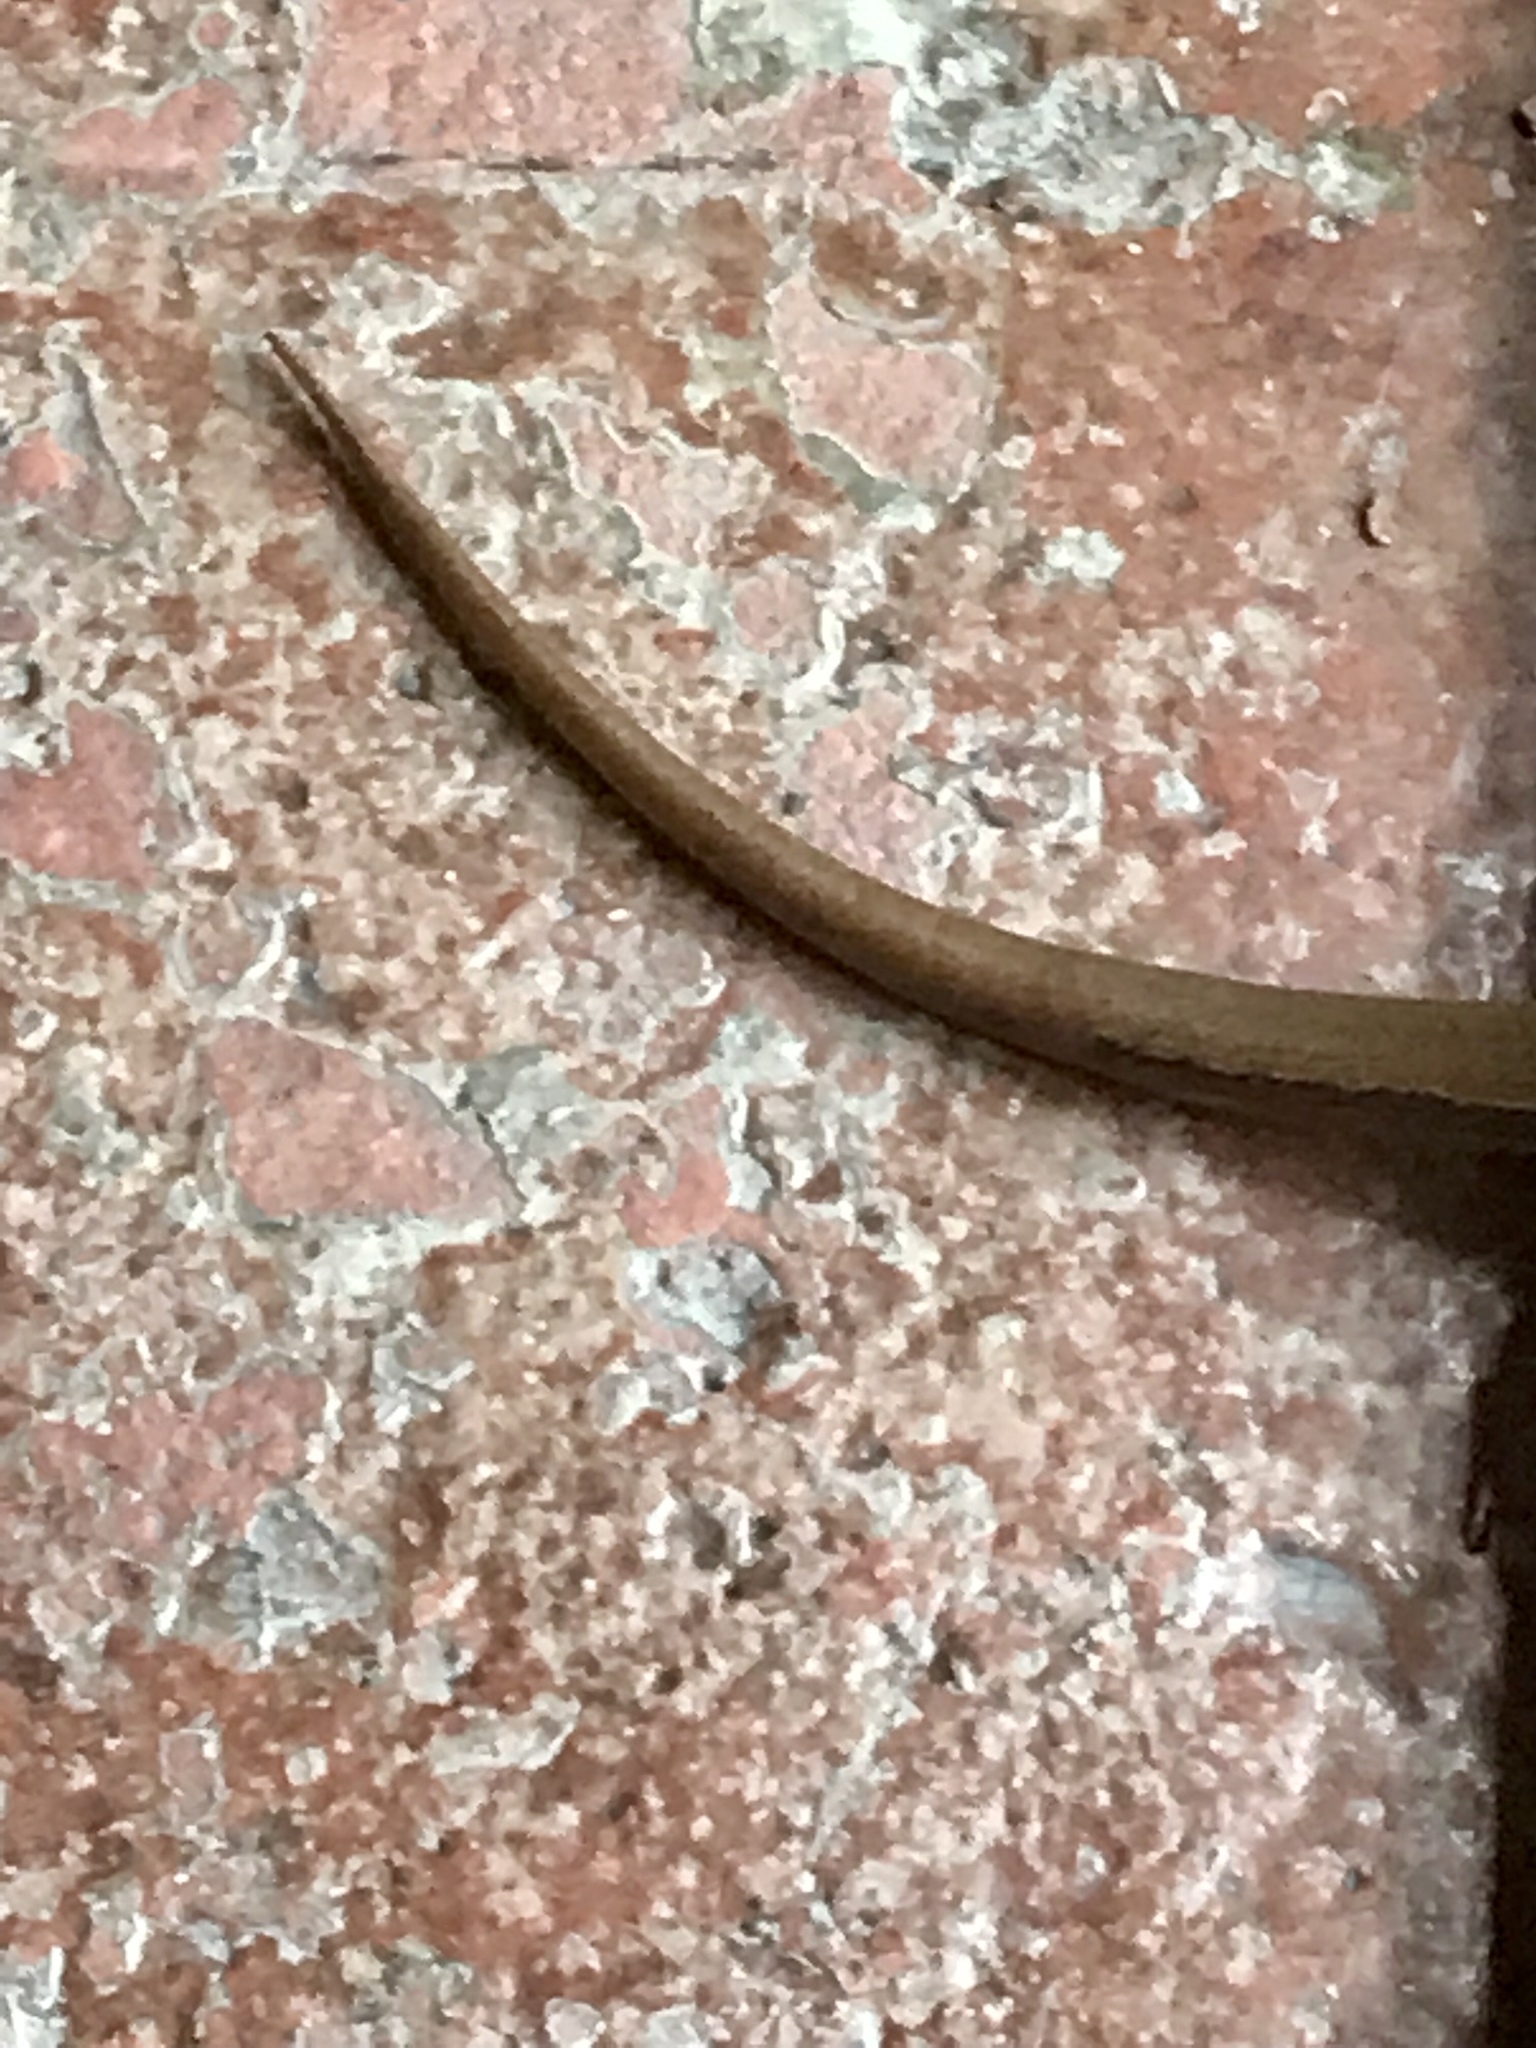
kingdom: Animalia
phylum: Chordata
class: Squamata
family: Scincidae
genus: Scincella
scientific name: Scincella silvicola
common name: Taylor’s ground skink
